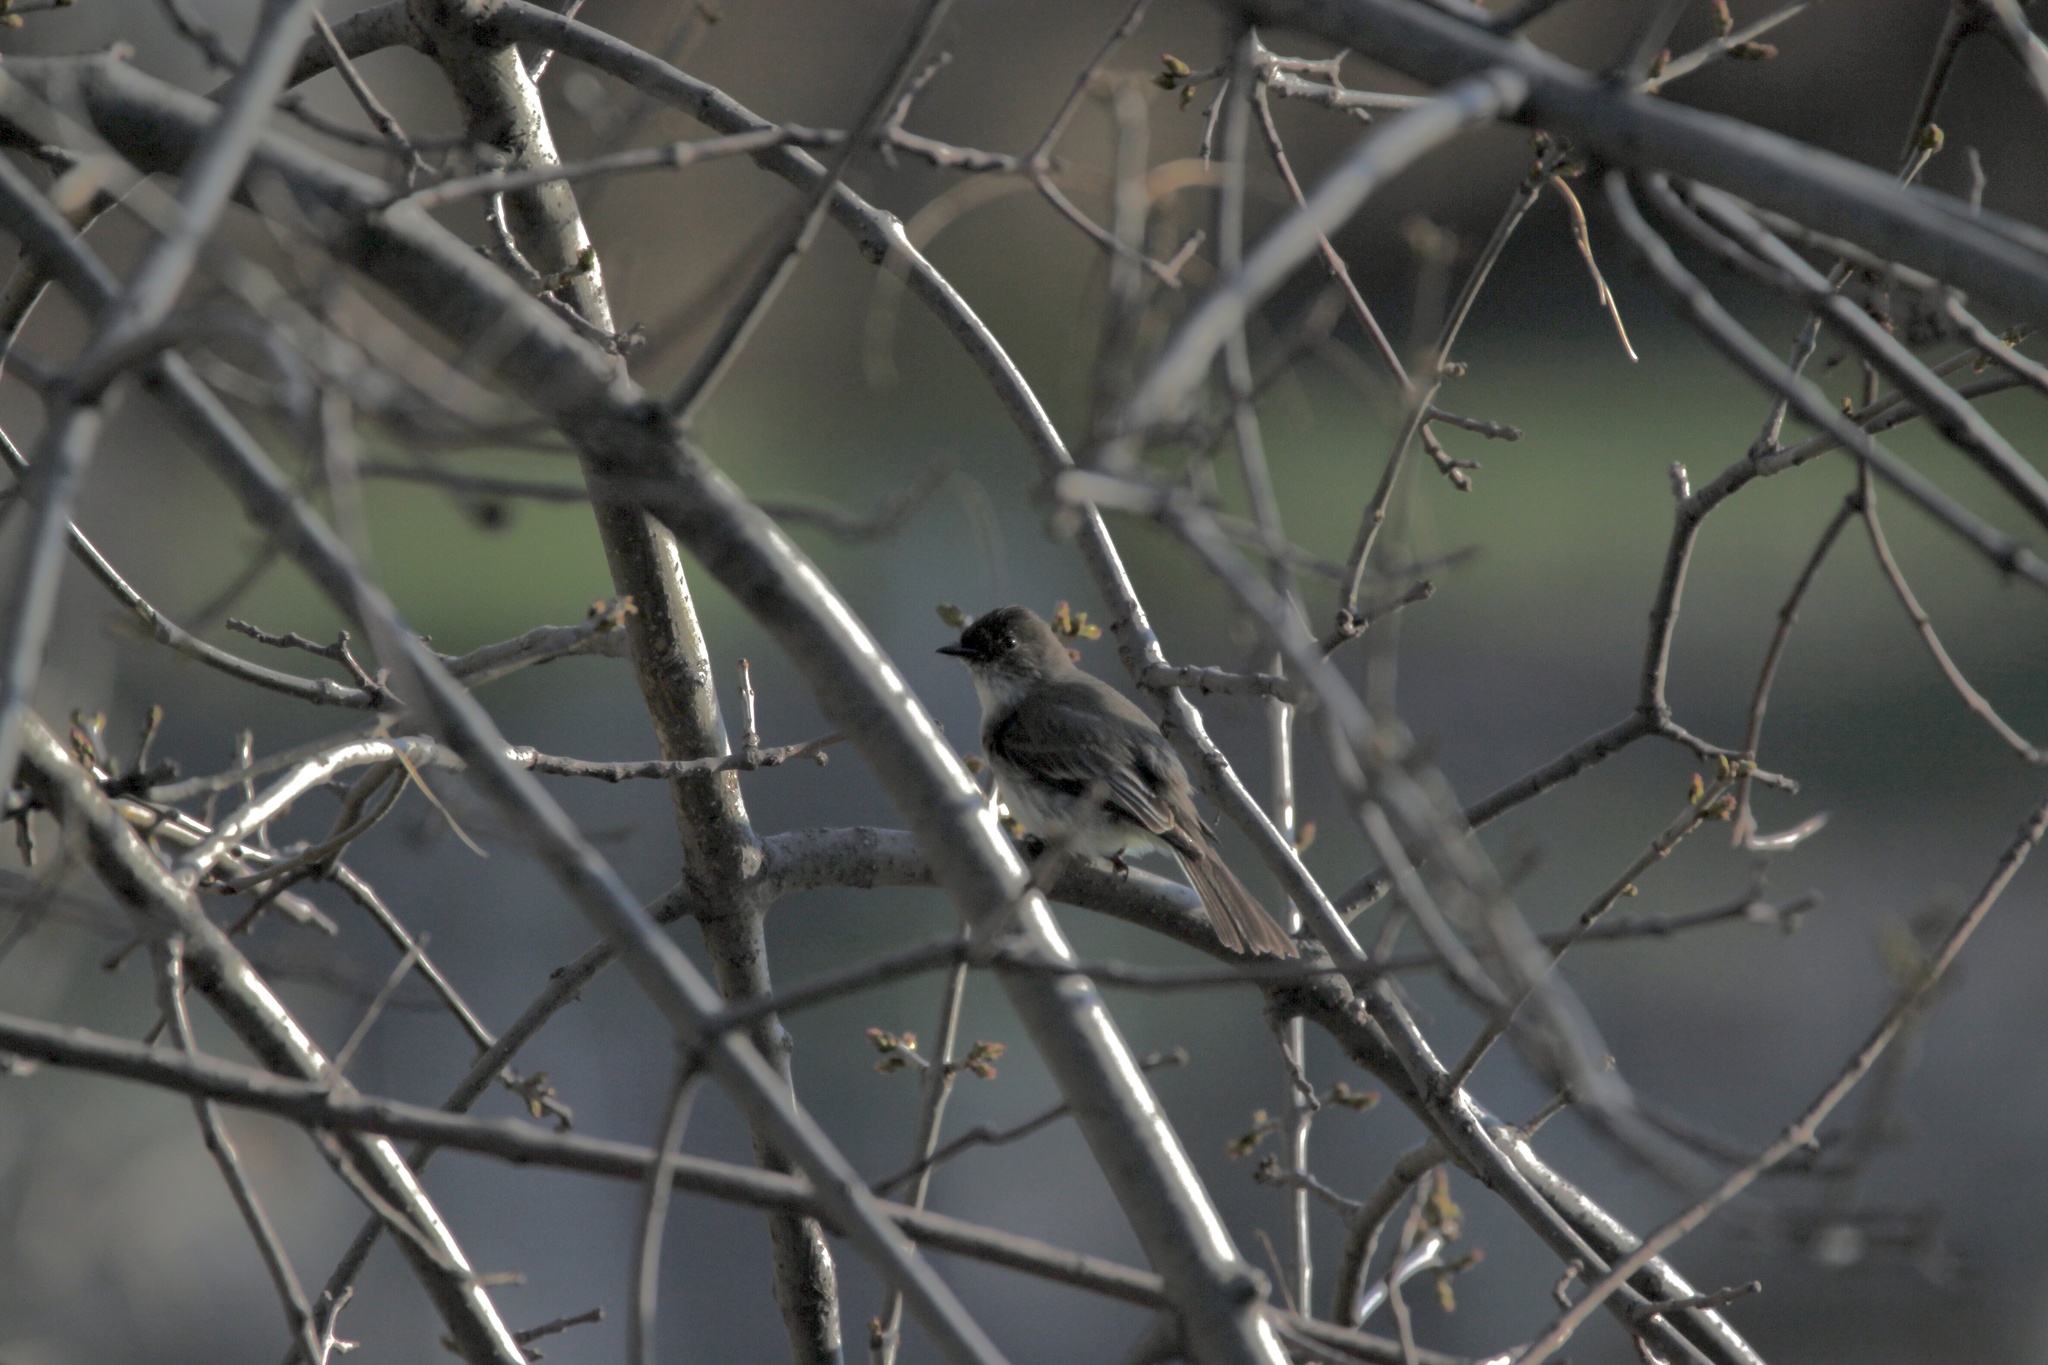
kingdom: Animalia
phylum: Chordata
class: Aves
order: Passeriformes
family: Tyrannidae
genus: Sayornis
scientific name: Sayornis phoebe
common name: Eastern phoebe
